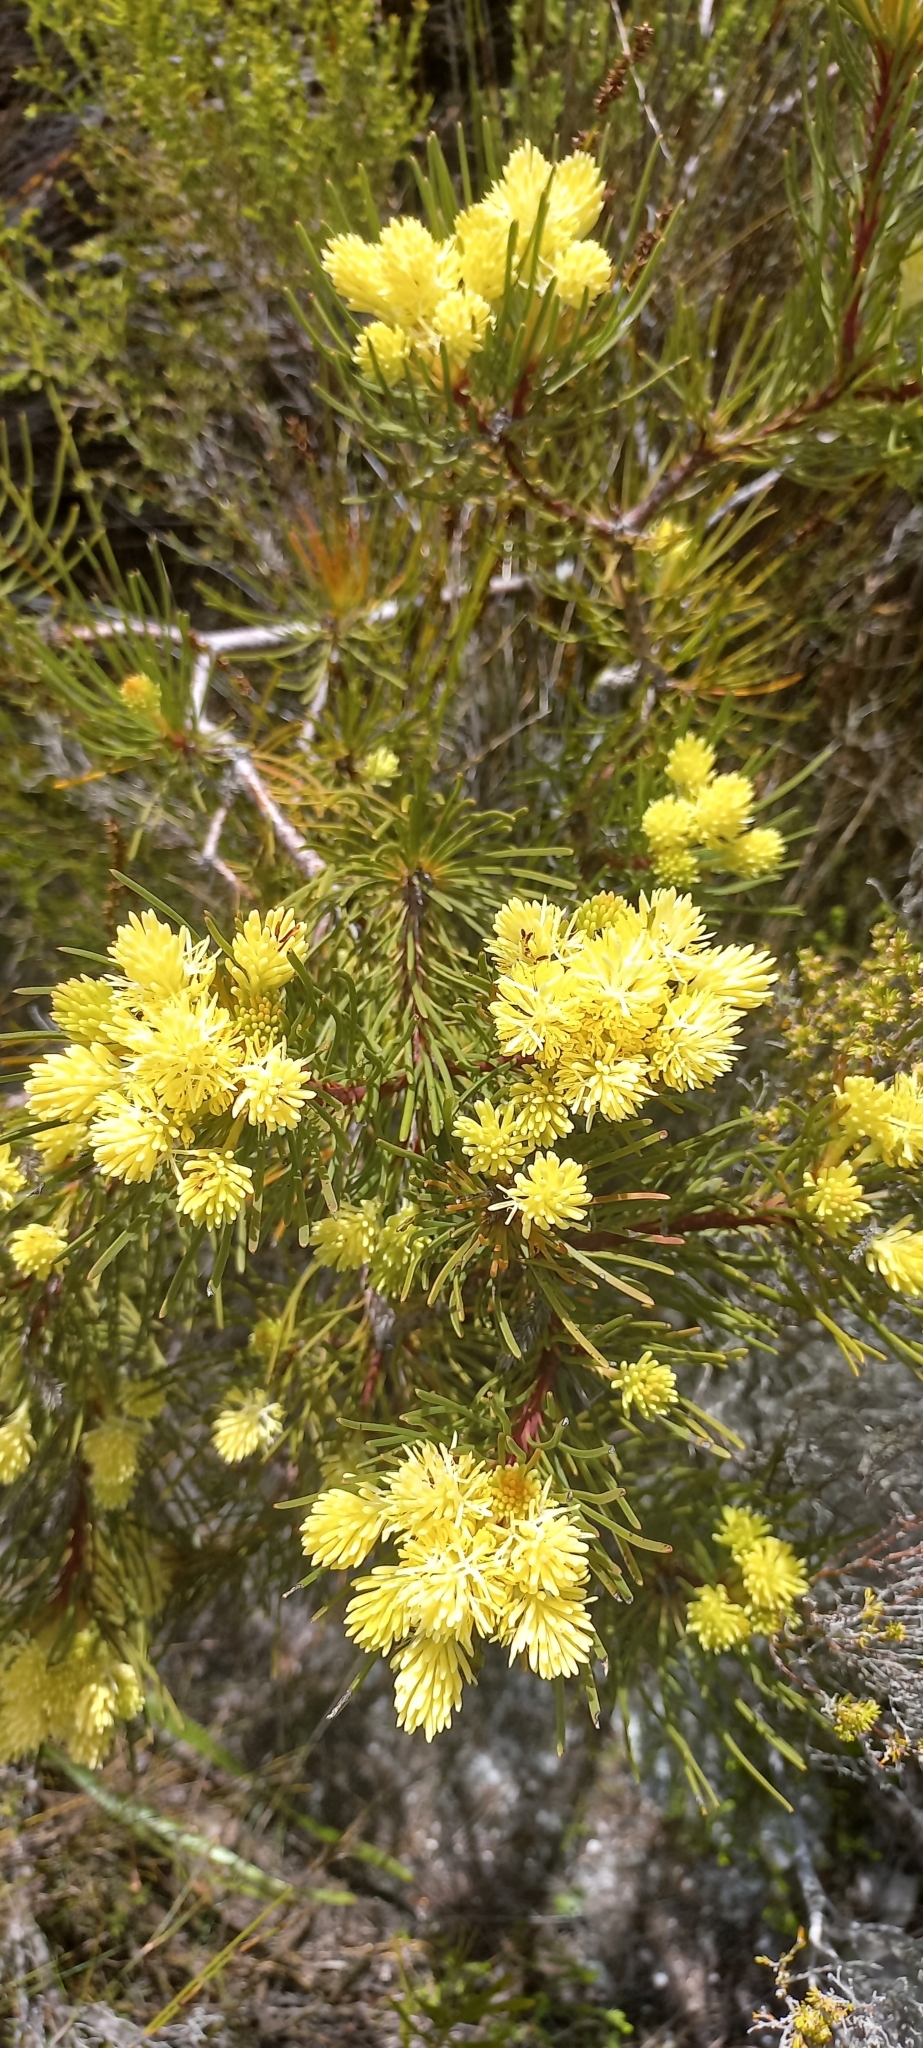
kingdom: Plantae
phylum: Tracheophyta
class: Magnoliopsida
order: Proteales
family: Proteaceae
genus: Aulax
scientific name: Aulax cancellata
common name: Channel-leaf featherbush
